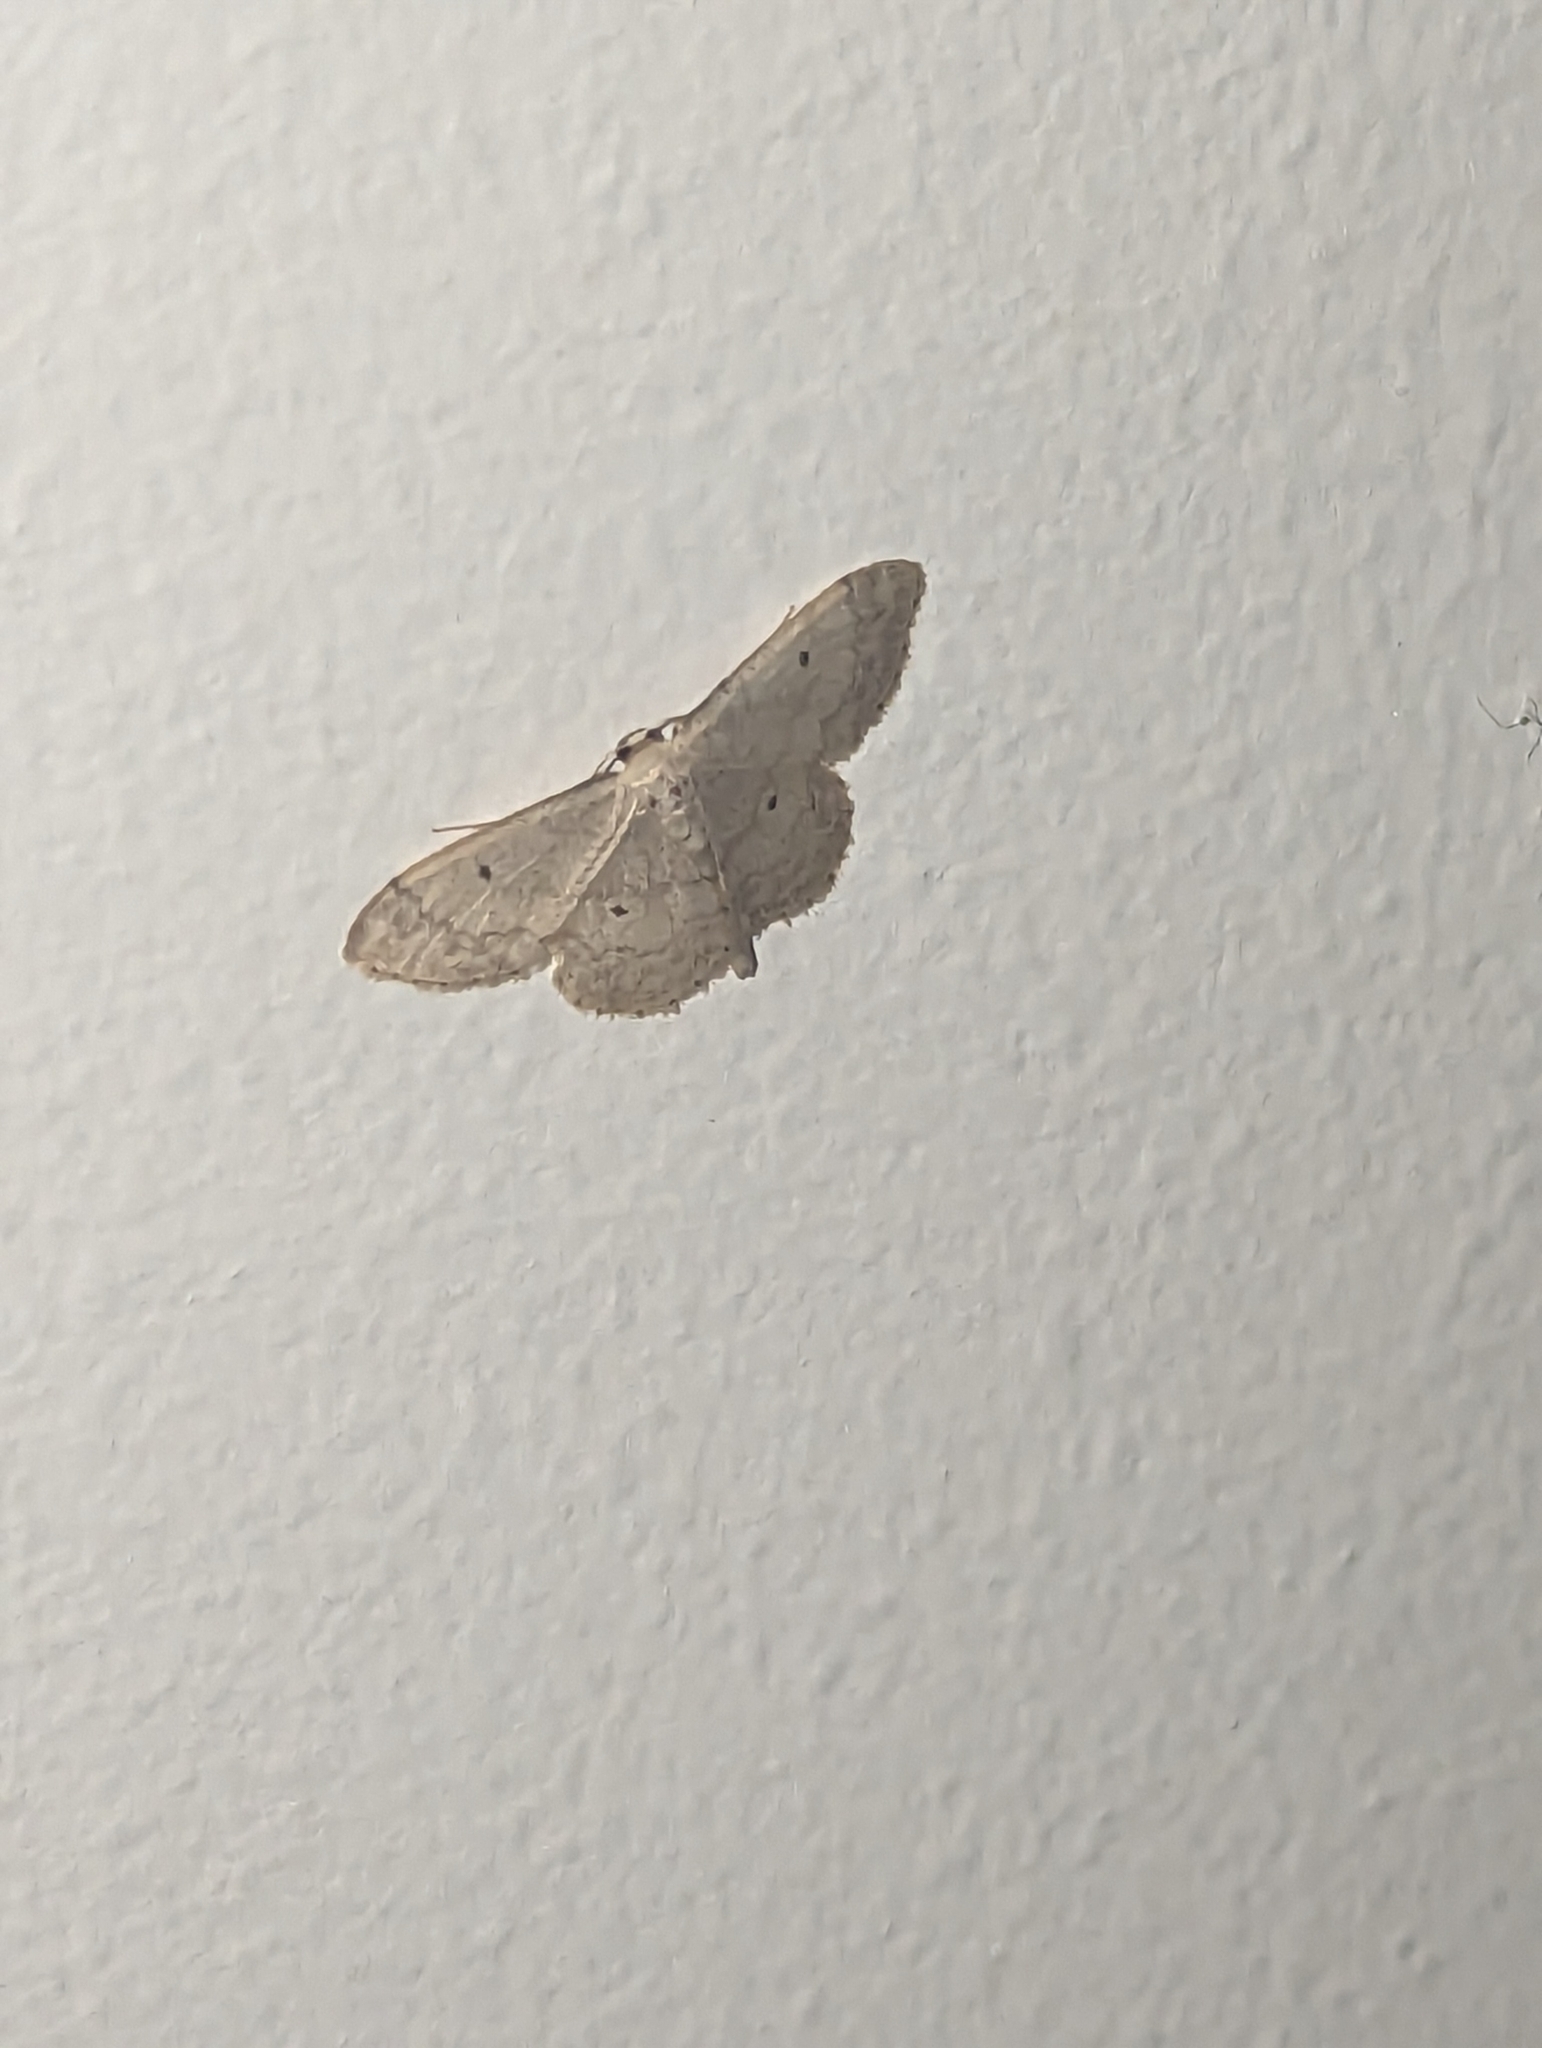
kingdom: Animalia
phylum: Arthropoda
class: Insecta
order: Lepidoptera
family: Geometridae
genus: Idaea
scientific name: Idaea biselata
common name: Small fan-footed wave
